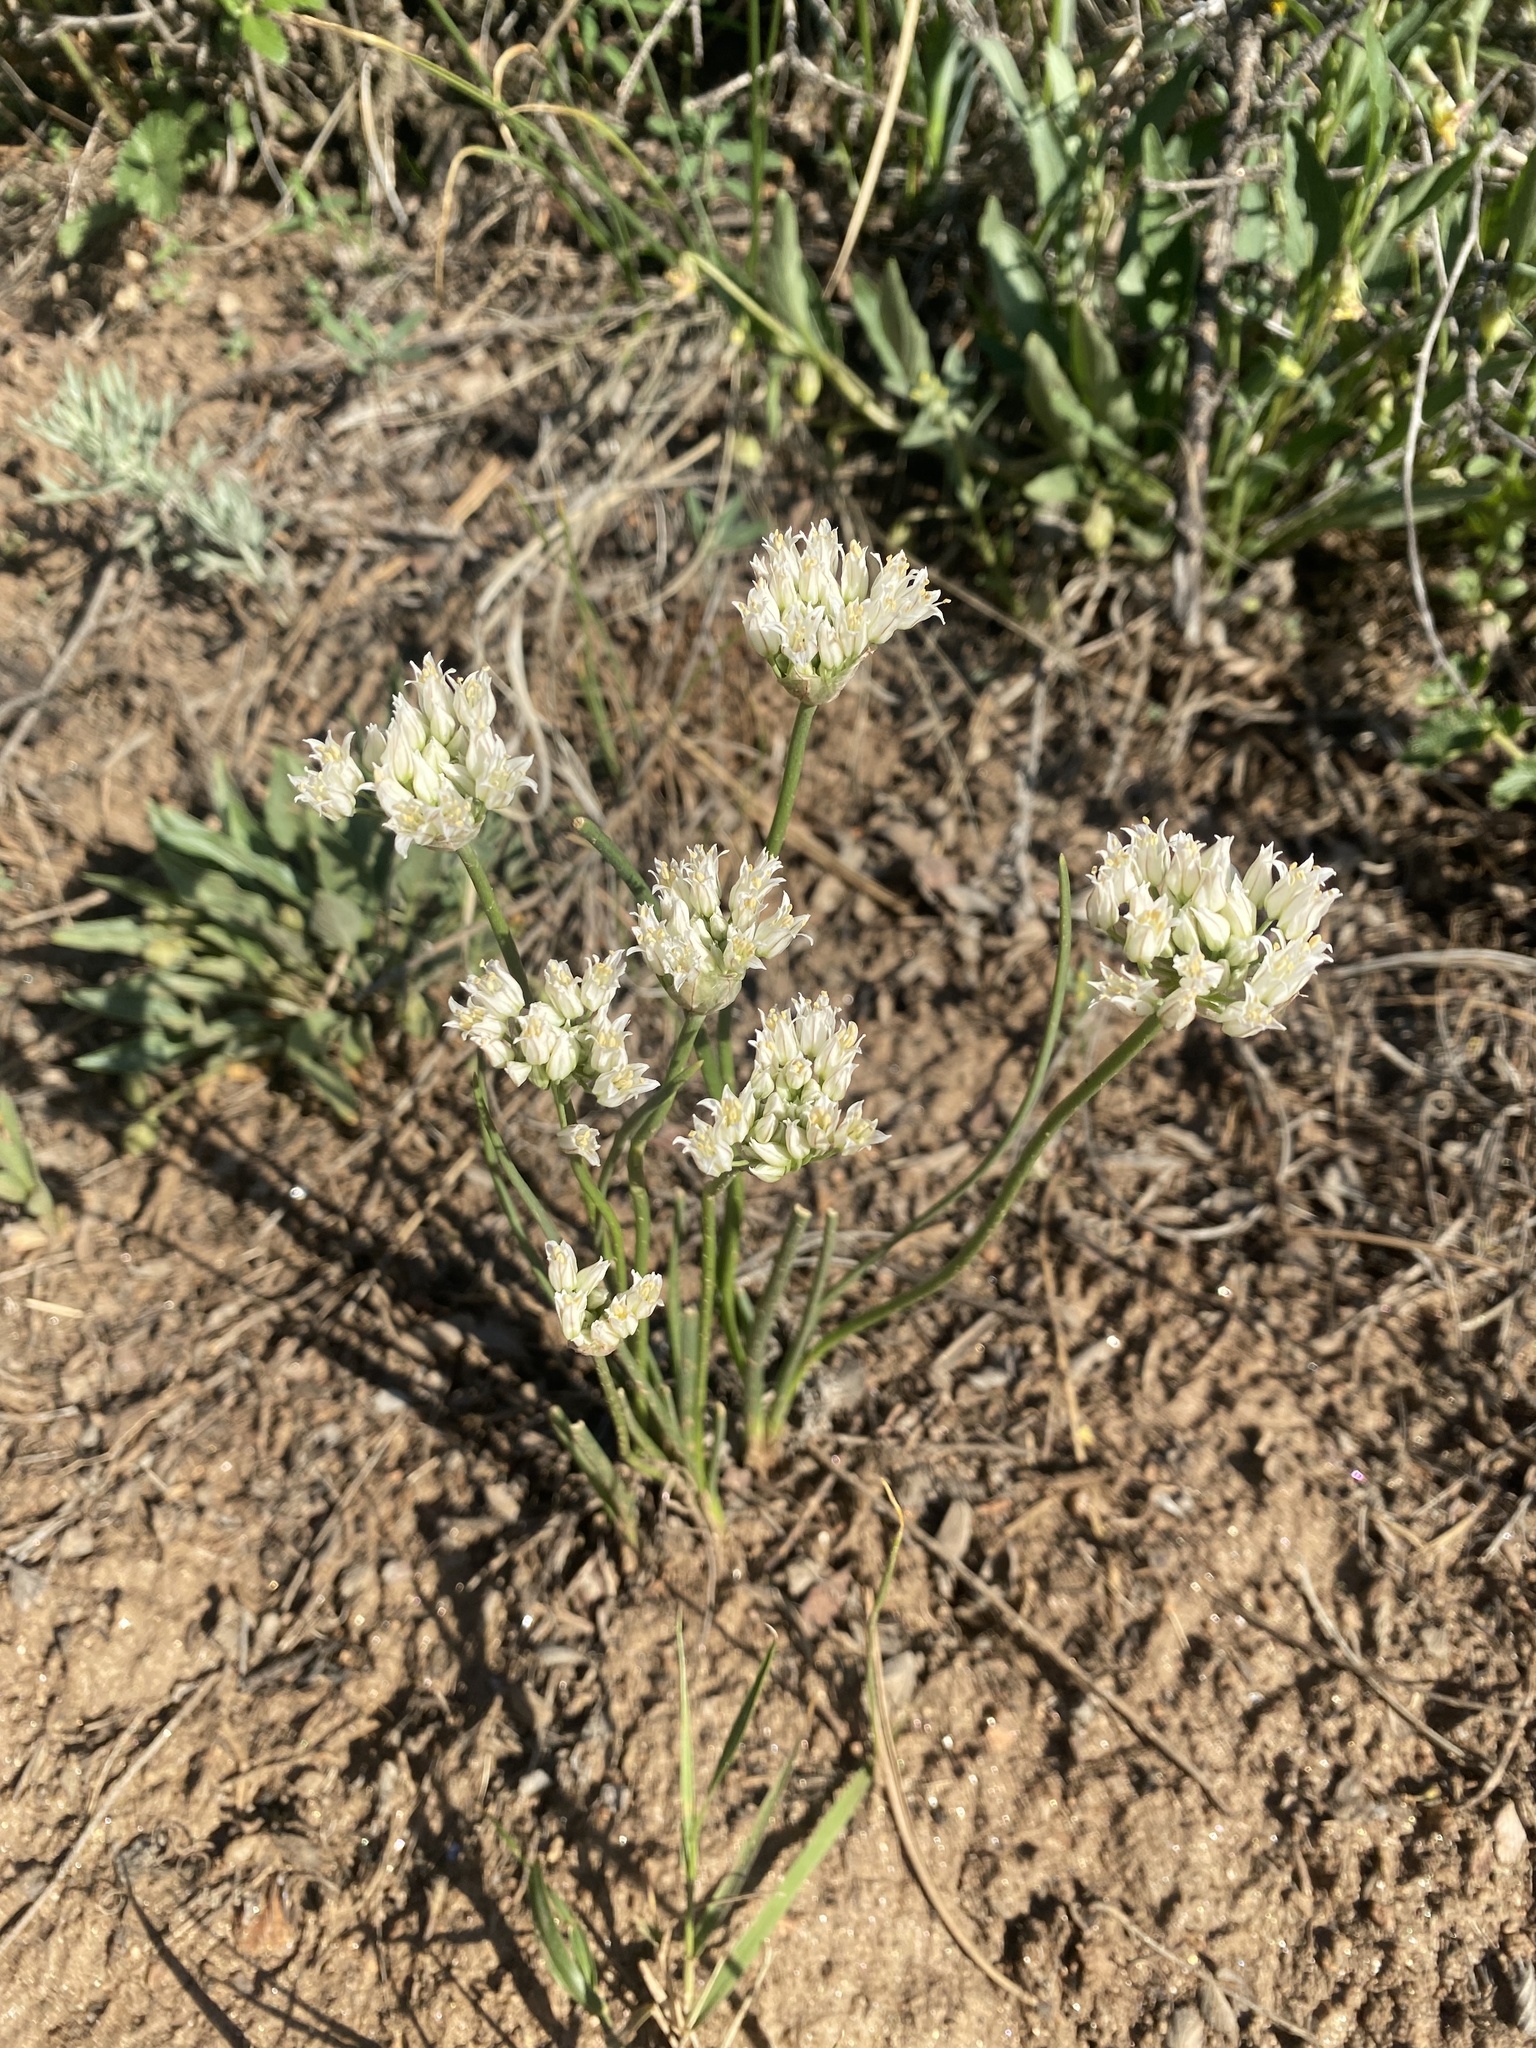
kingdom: Plantae
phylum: Tracheophyta
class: Liliopsida
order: Asparagales
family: Amaryllidaceae
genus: Allium
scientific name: Allium textile
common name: Prairie onion
